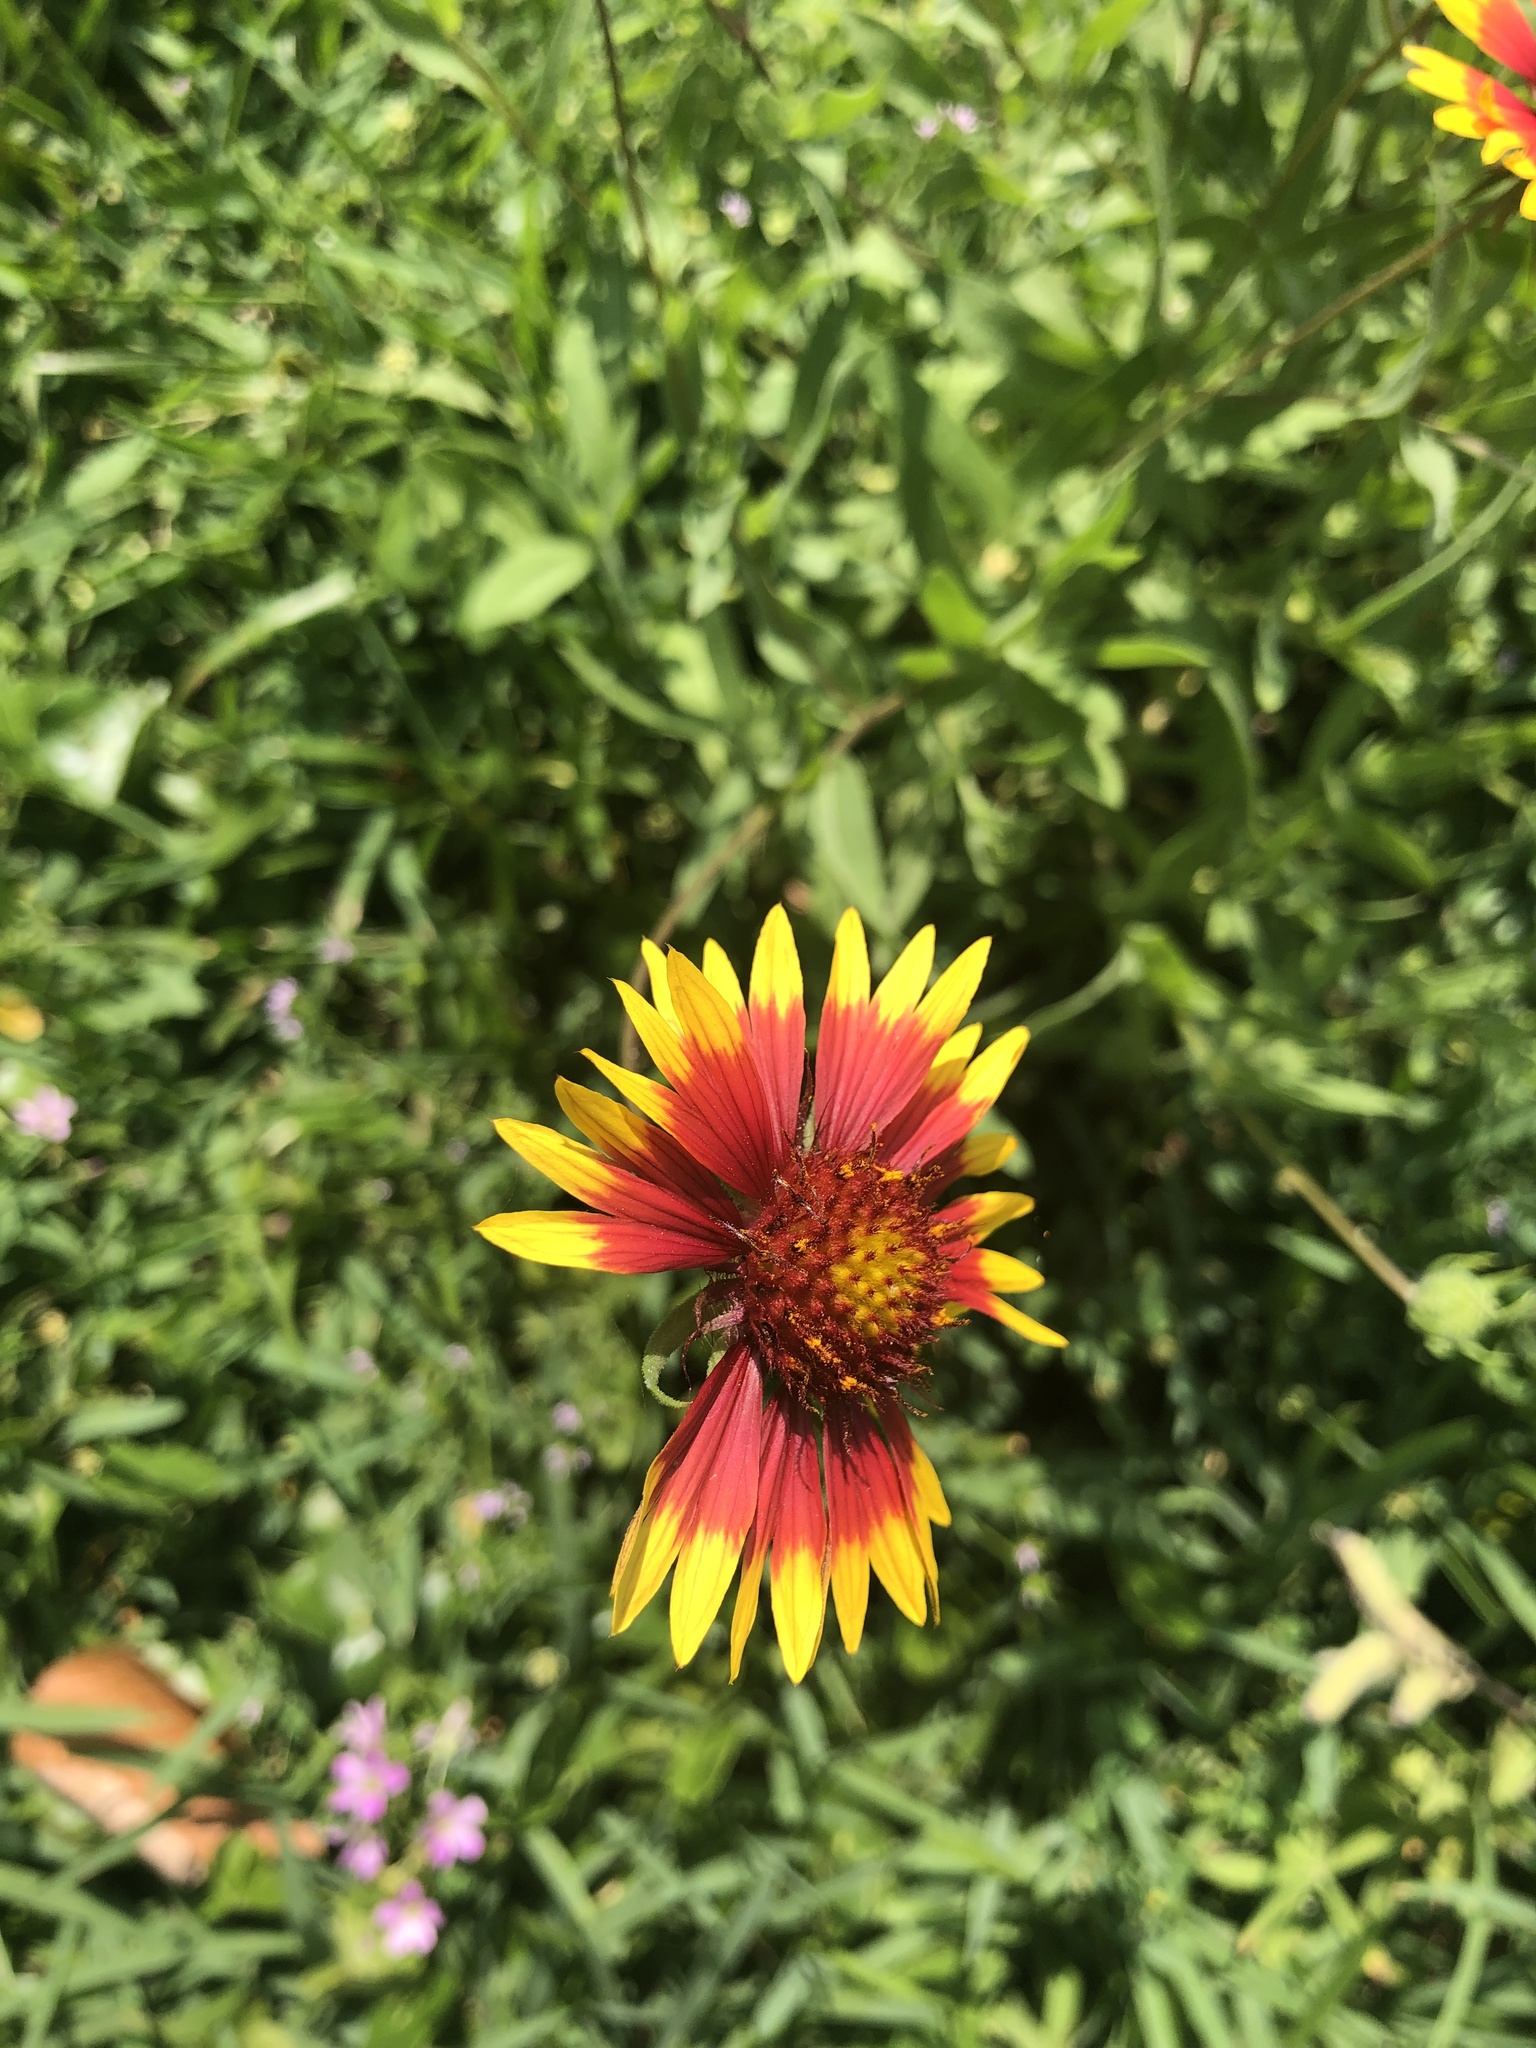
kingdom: Plantae
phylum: Tracheophyta
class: Magnoliopsida
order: Asterales
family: Asteraceae
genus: Gaillardia
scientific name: Gaillardia pulchella
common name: Firewheel
